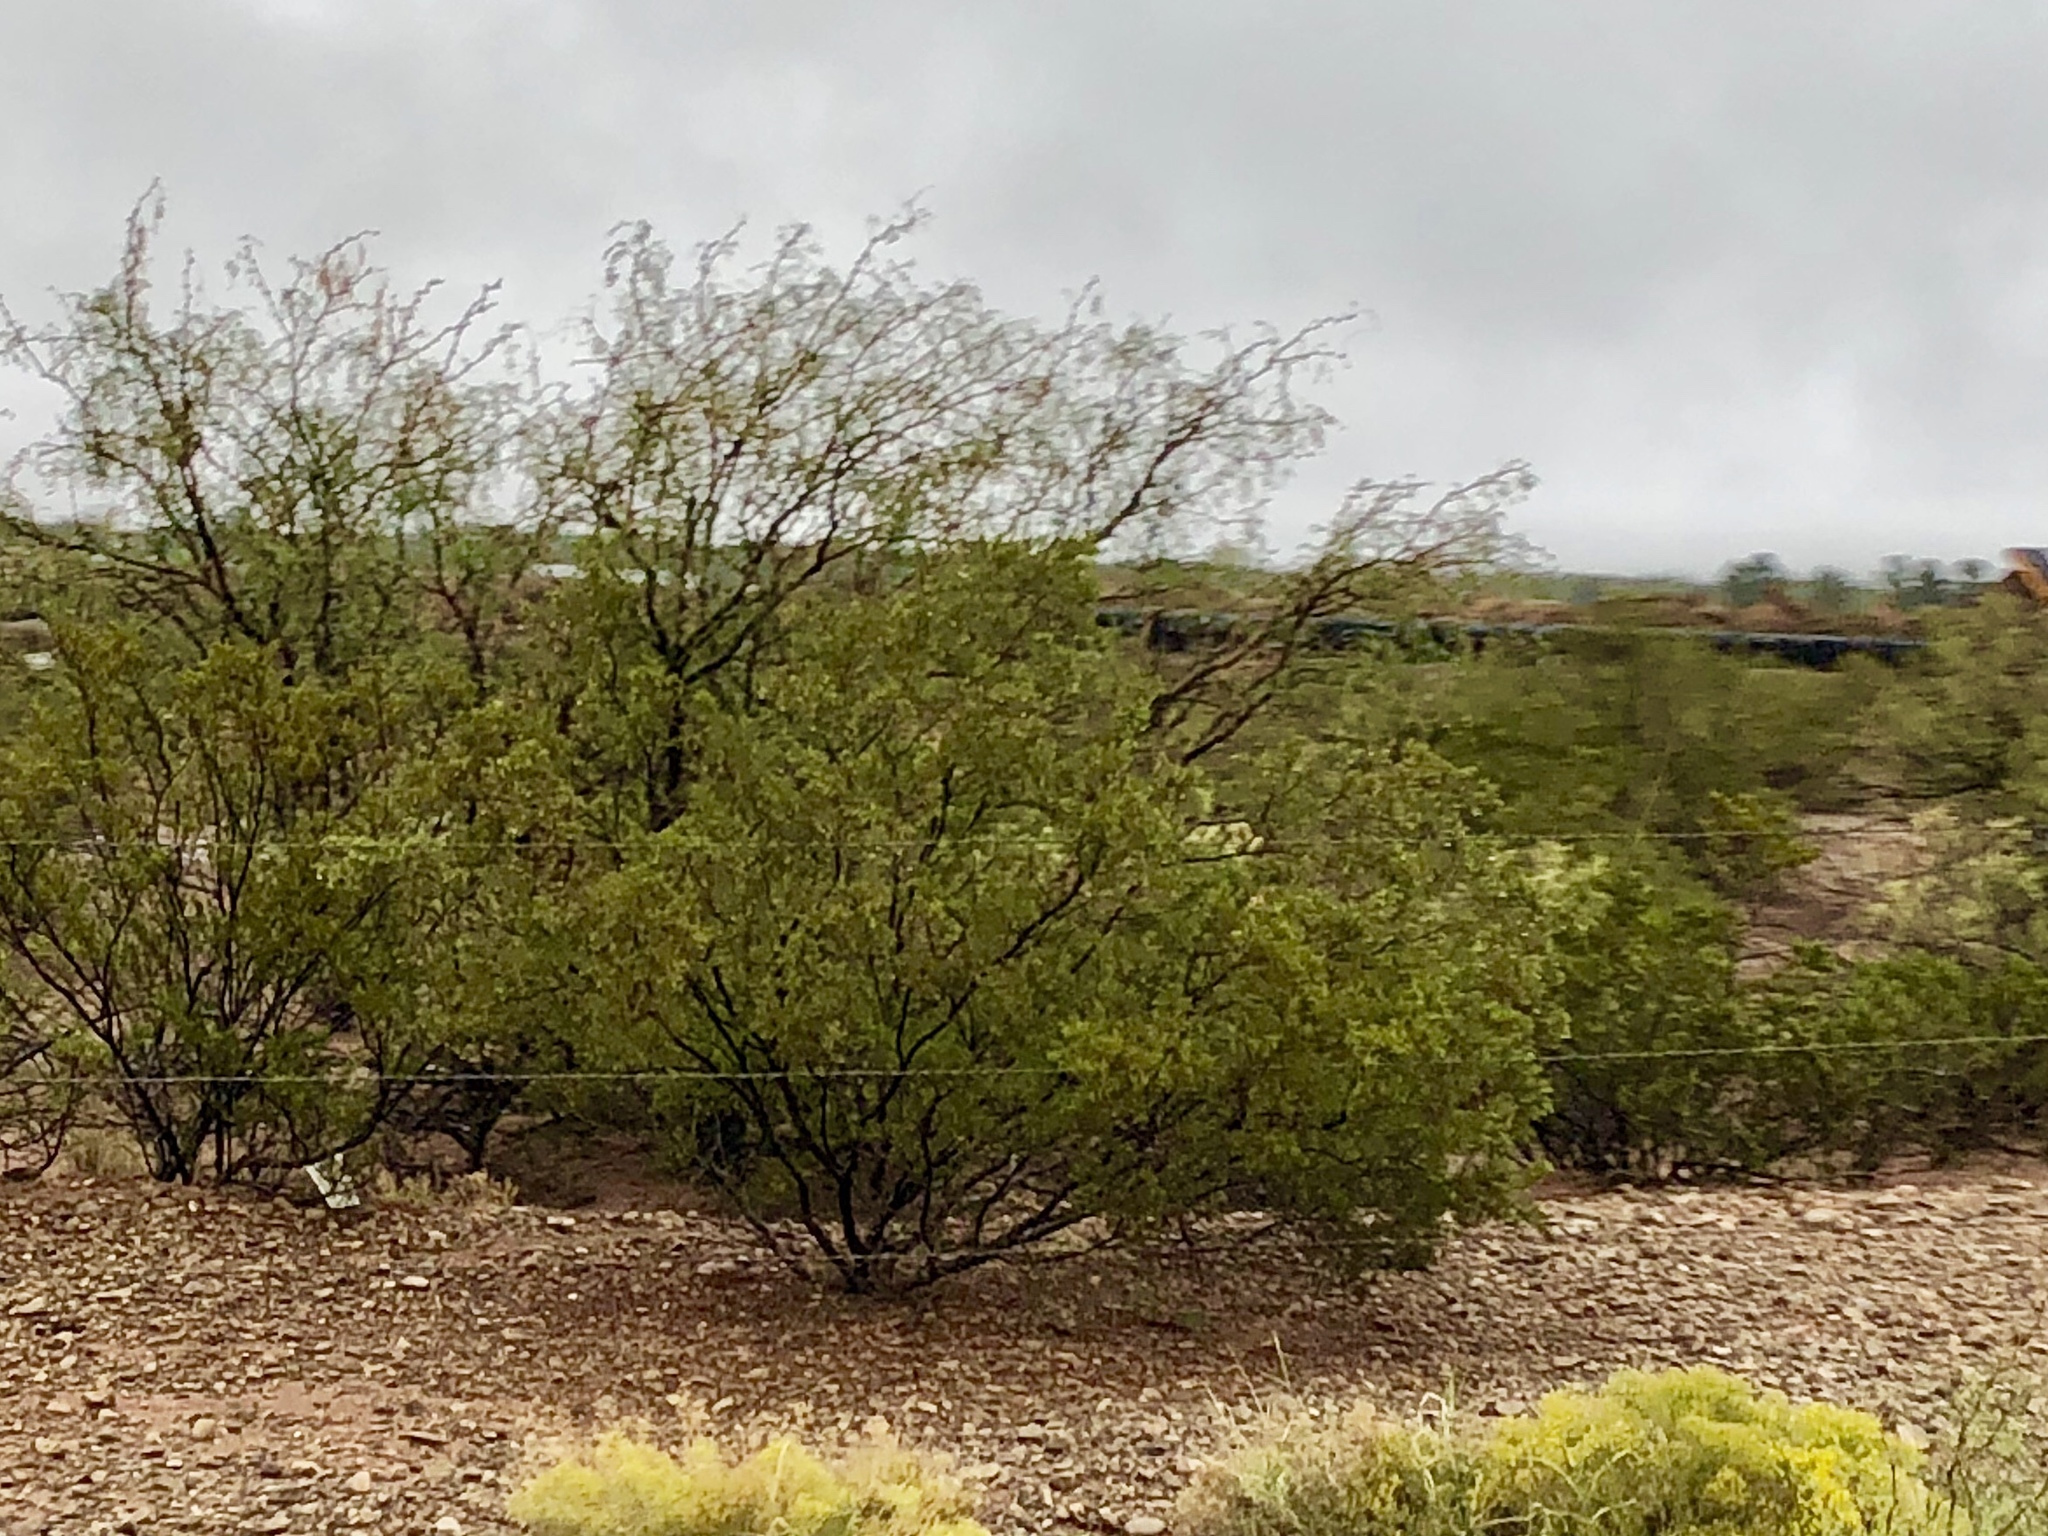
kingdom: Plantae
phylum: Tracheophyta
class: Magnoliopsida
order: Zygophyllales
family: Zygophyllaceae
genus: Larrea
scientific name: Larrea tridentata
